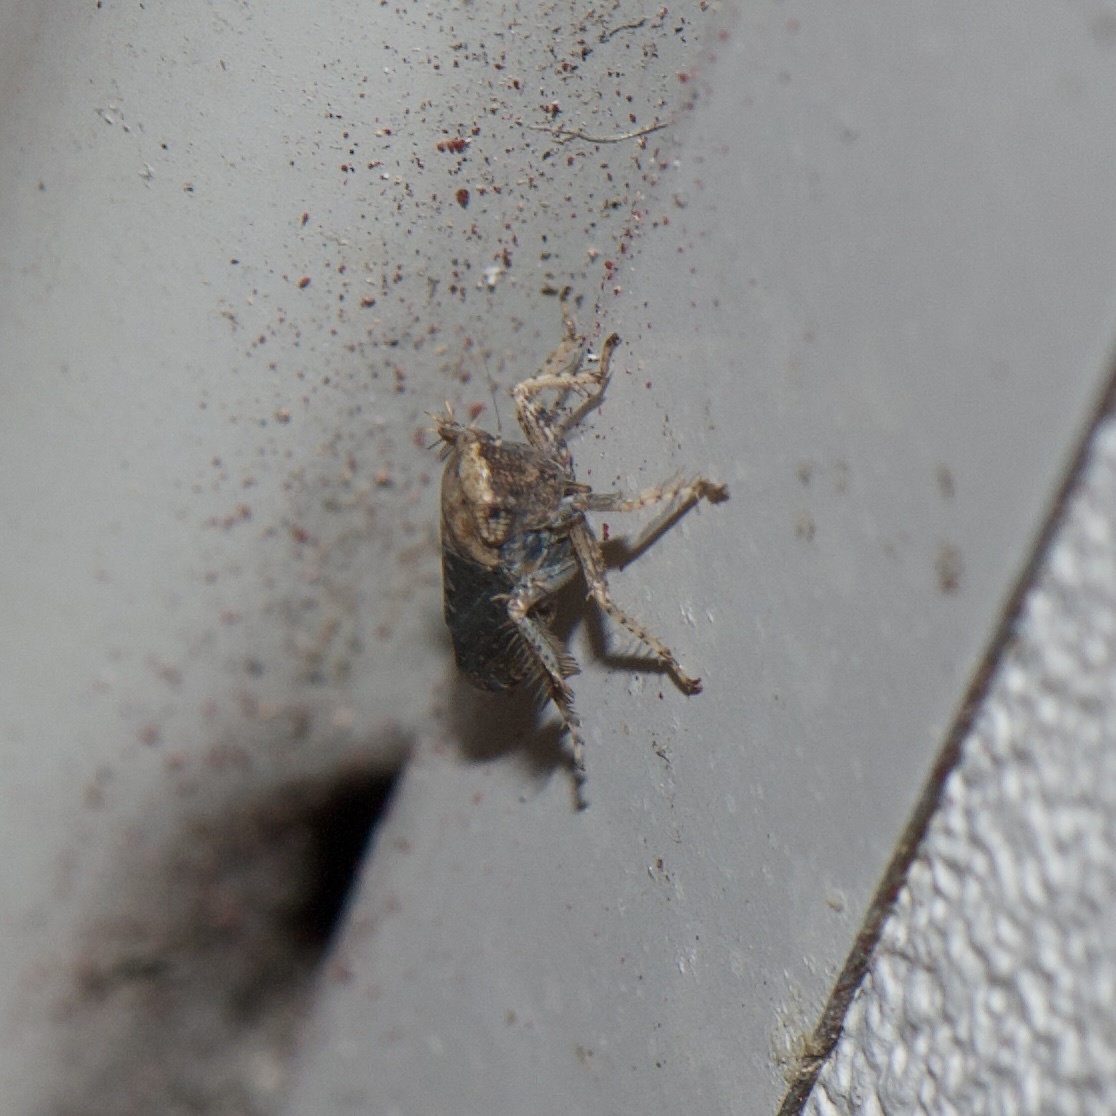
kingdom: Animalia
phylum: Arthropoda
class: Insecta
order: Hemiptera
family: Cicadellidae
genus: Excultanus
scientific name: Excultanus excultus
